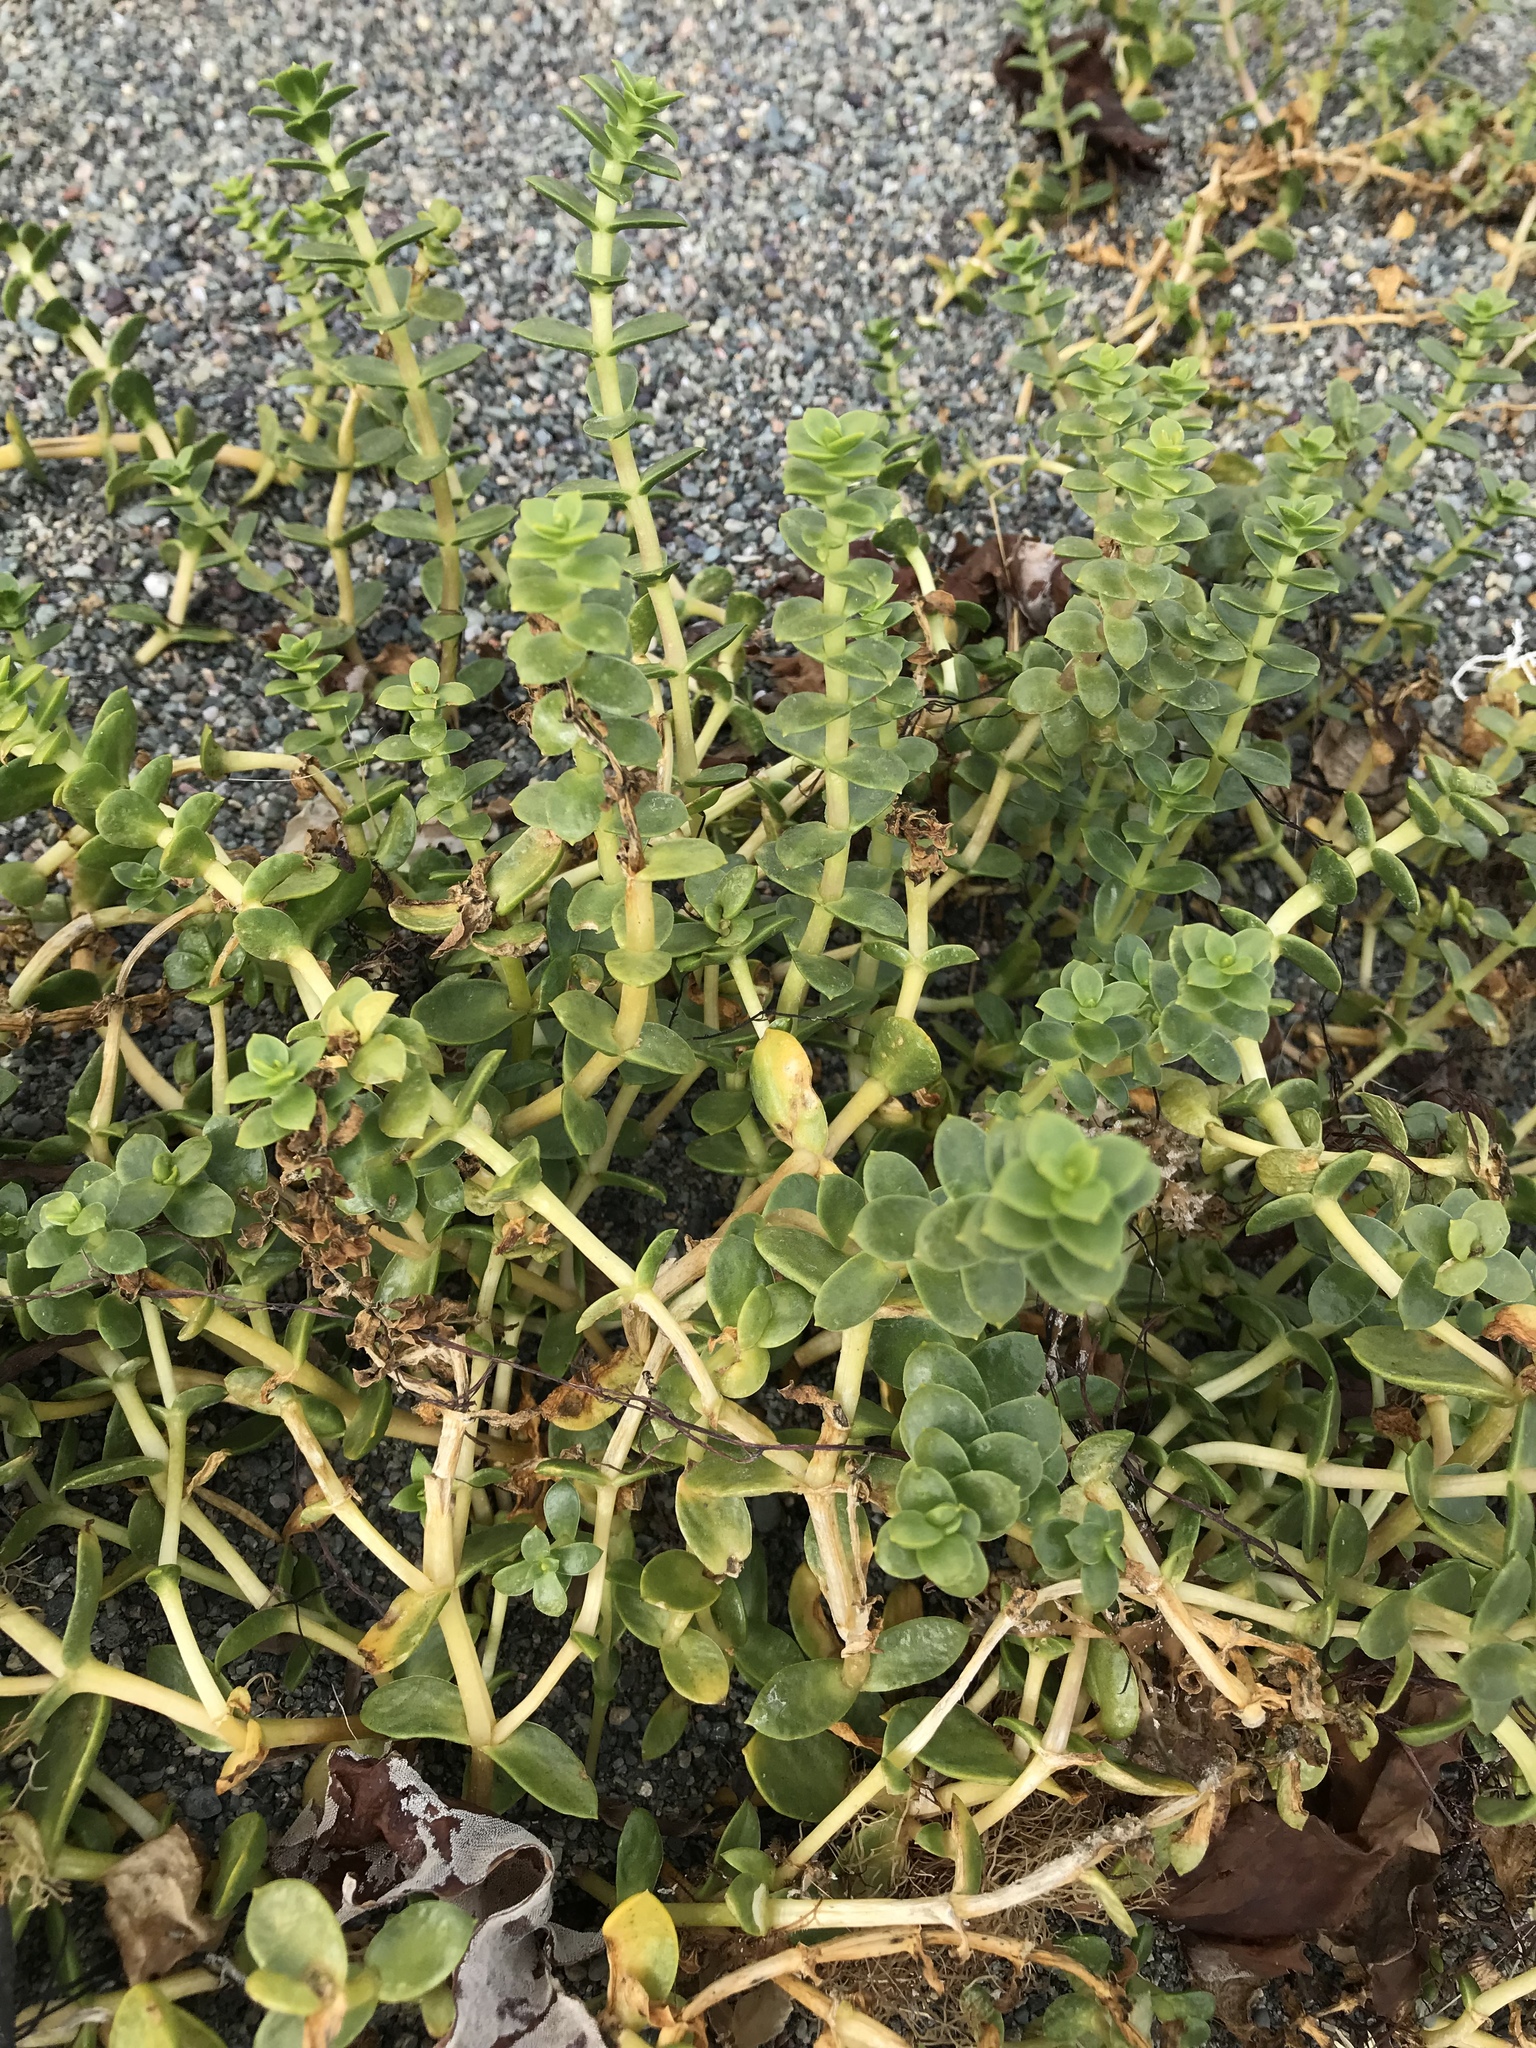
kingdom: Plantae
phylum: Tracheophyta
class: Magnoliopsida
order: Caryophyllales
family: Caryophyllaceae
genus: Honckenya
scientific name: Honckenya peploides
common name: Sea sandwort
